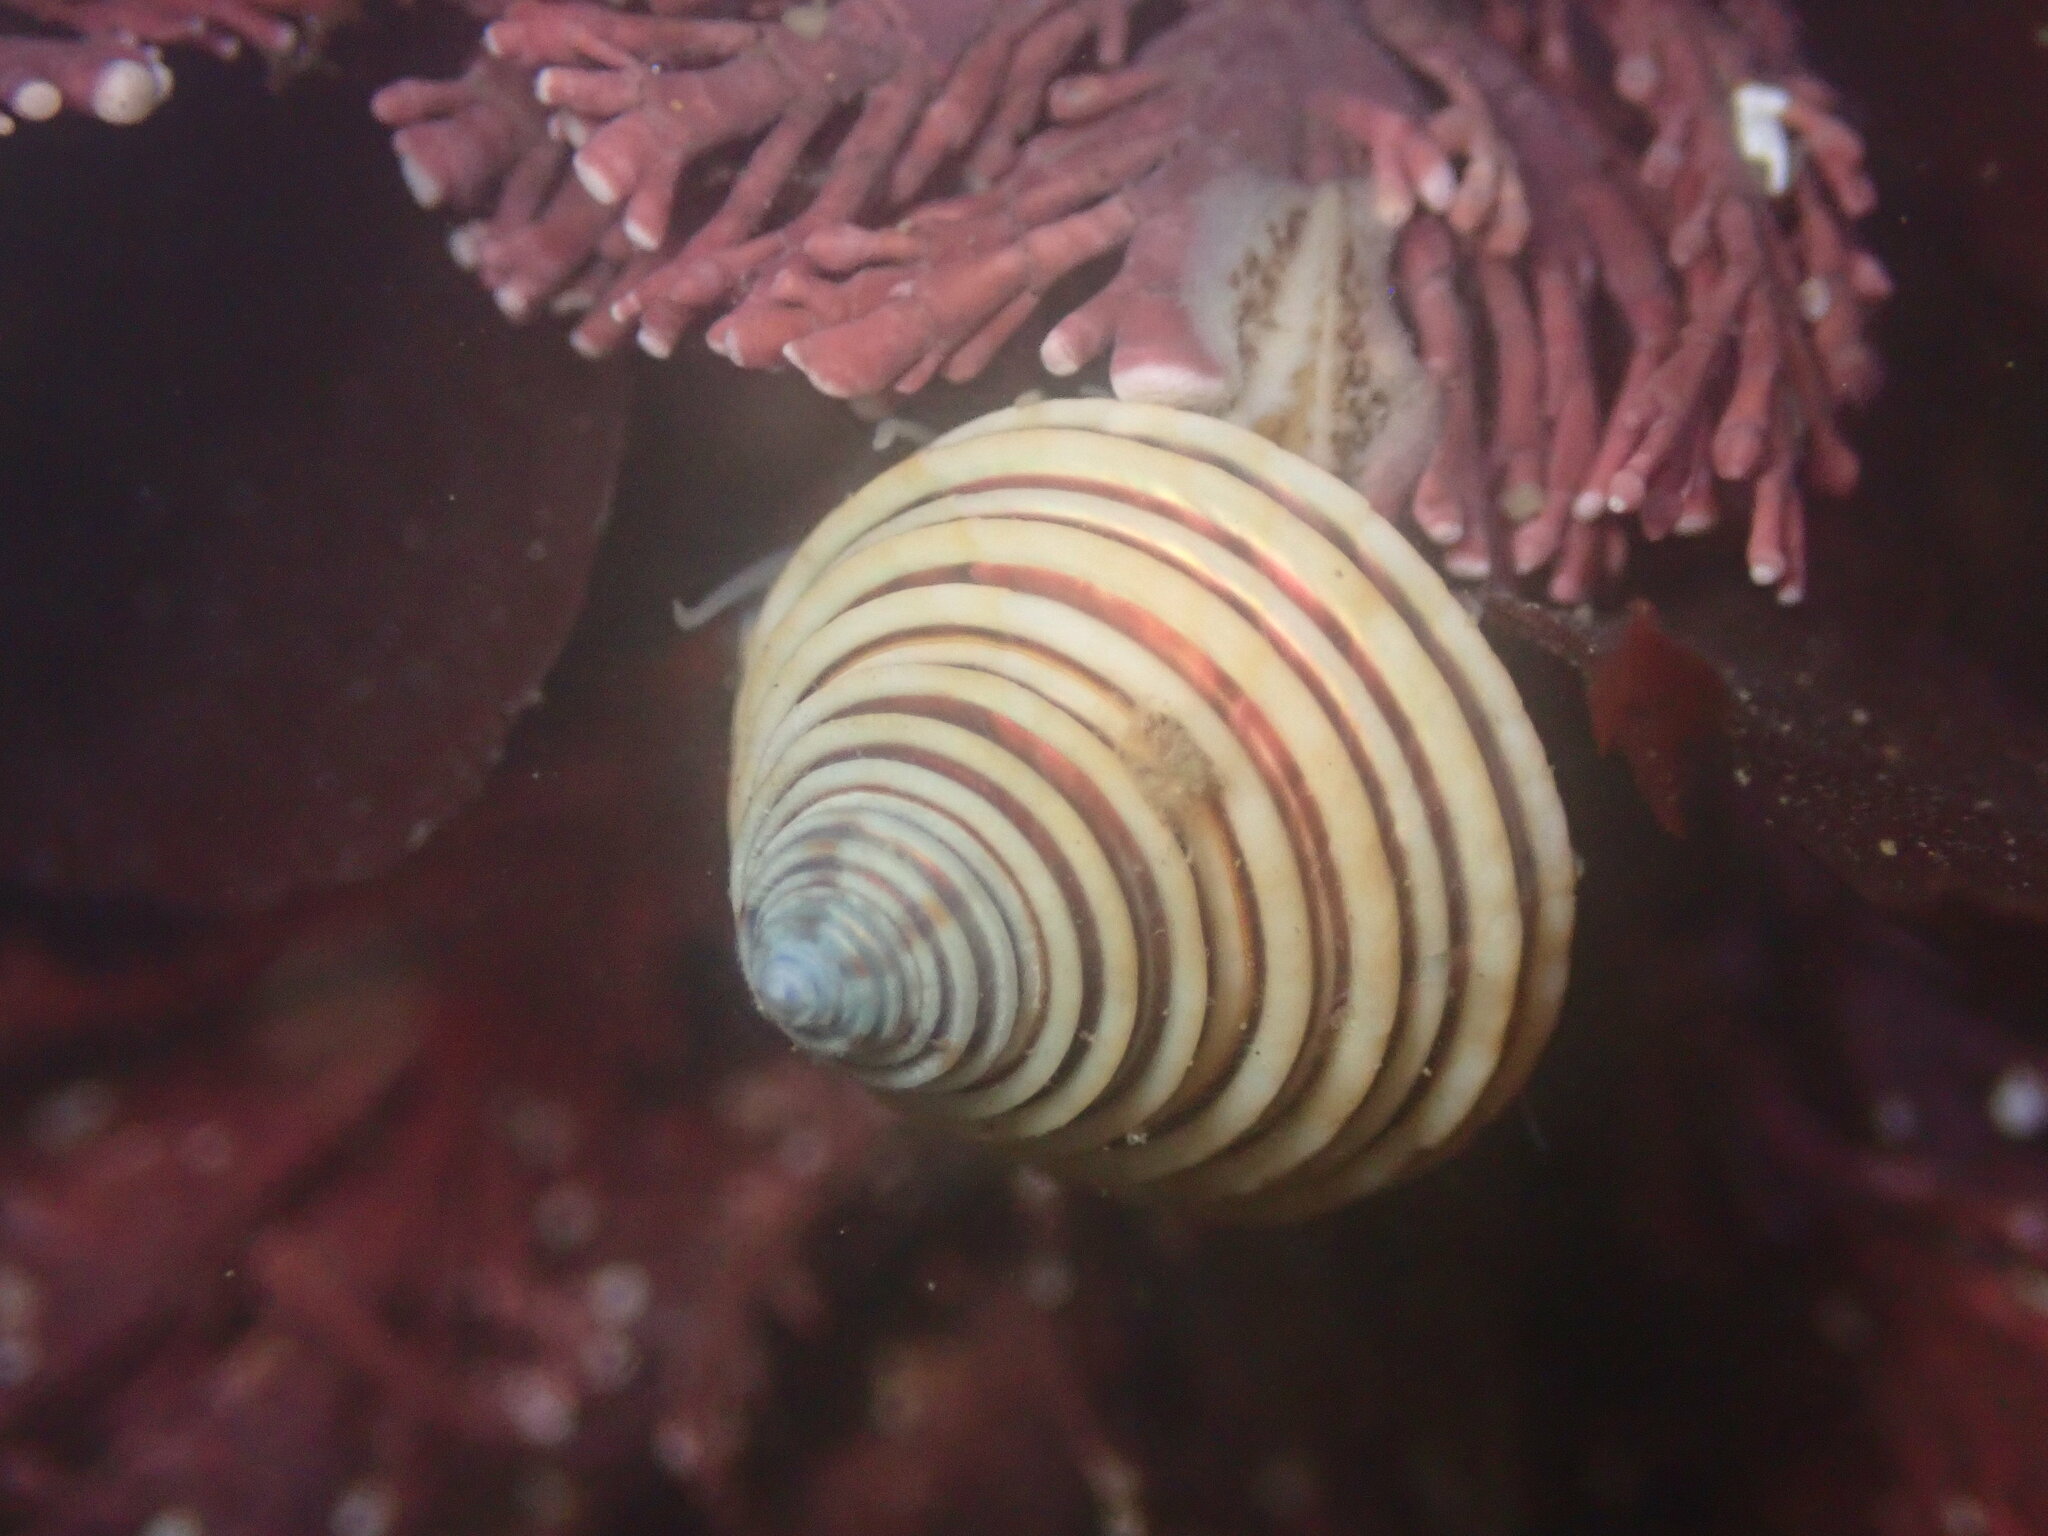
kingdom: Animalia
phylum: Mollusca
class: Gastropoda
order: Trochida
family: Calliostomatidae
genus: Calliostoma
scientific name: Calliostoma canaliculatum
